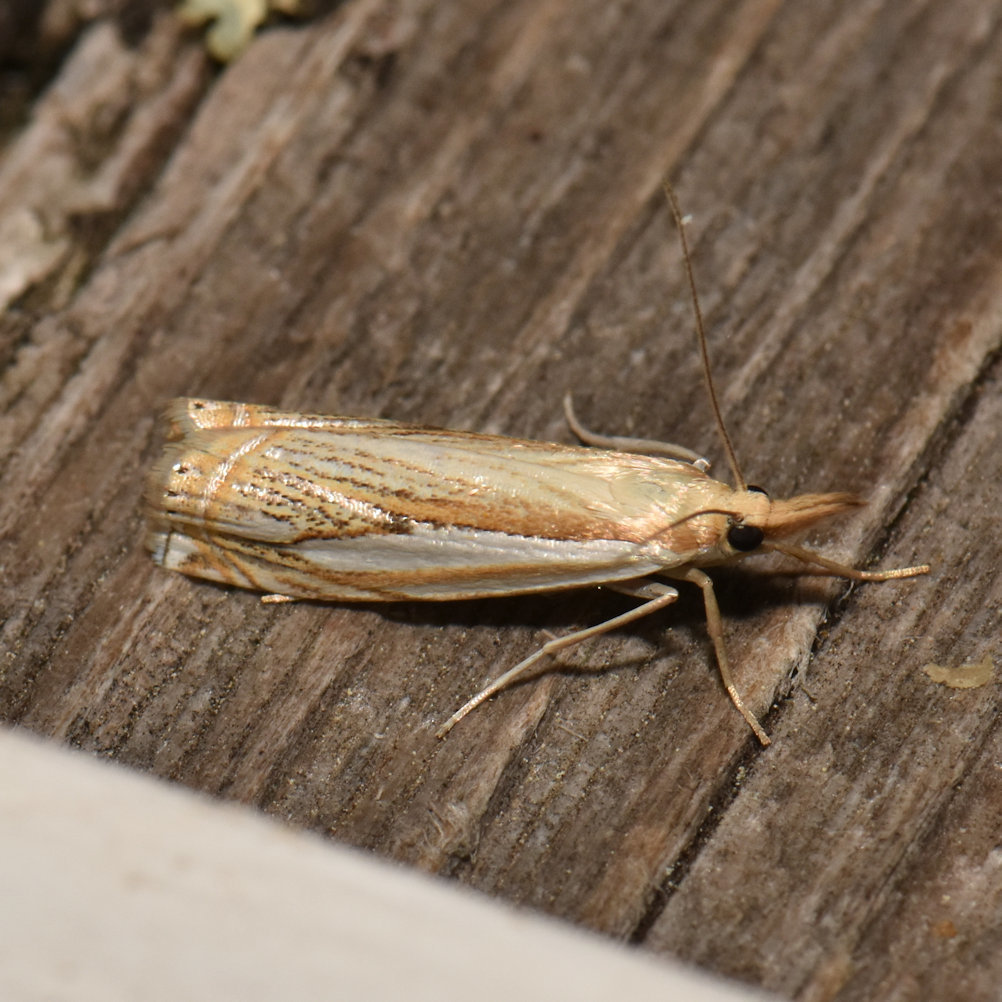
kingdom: Animalia
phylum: Arthropoda
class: Insecta
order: Lepidoptera
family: Crambidae
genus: Crambus
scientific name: Crambus saltuellus
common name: Pasture grass-veneer
